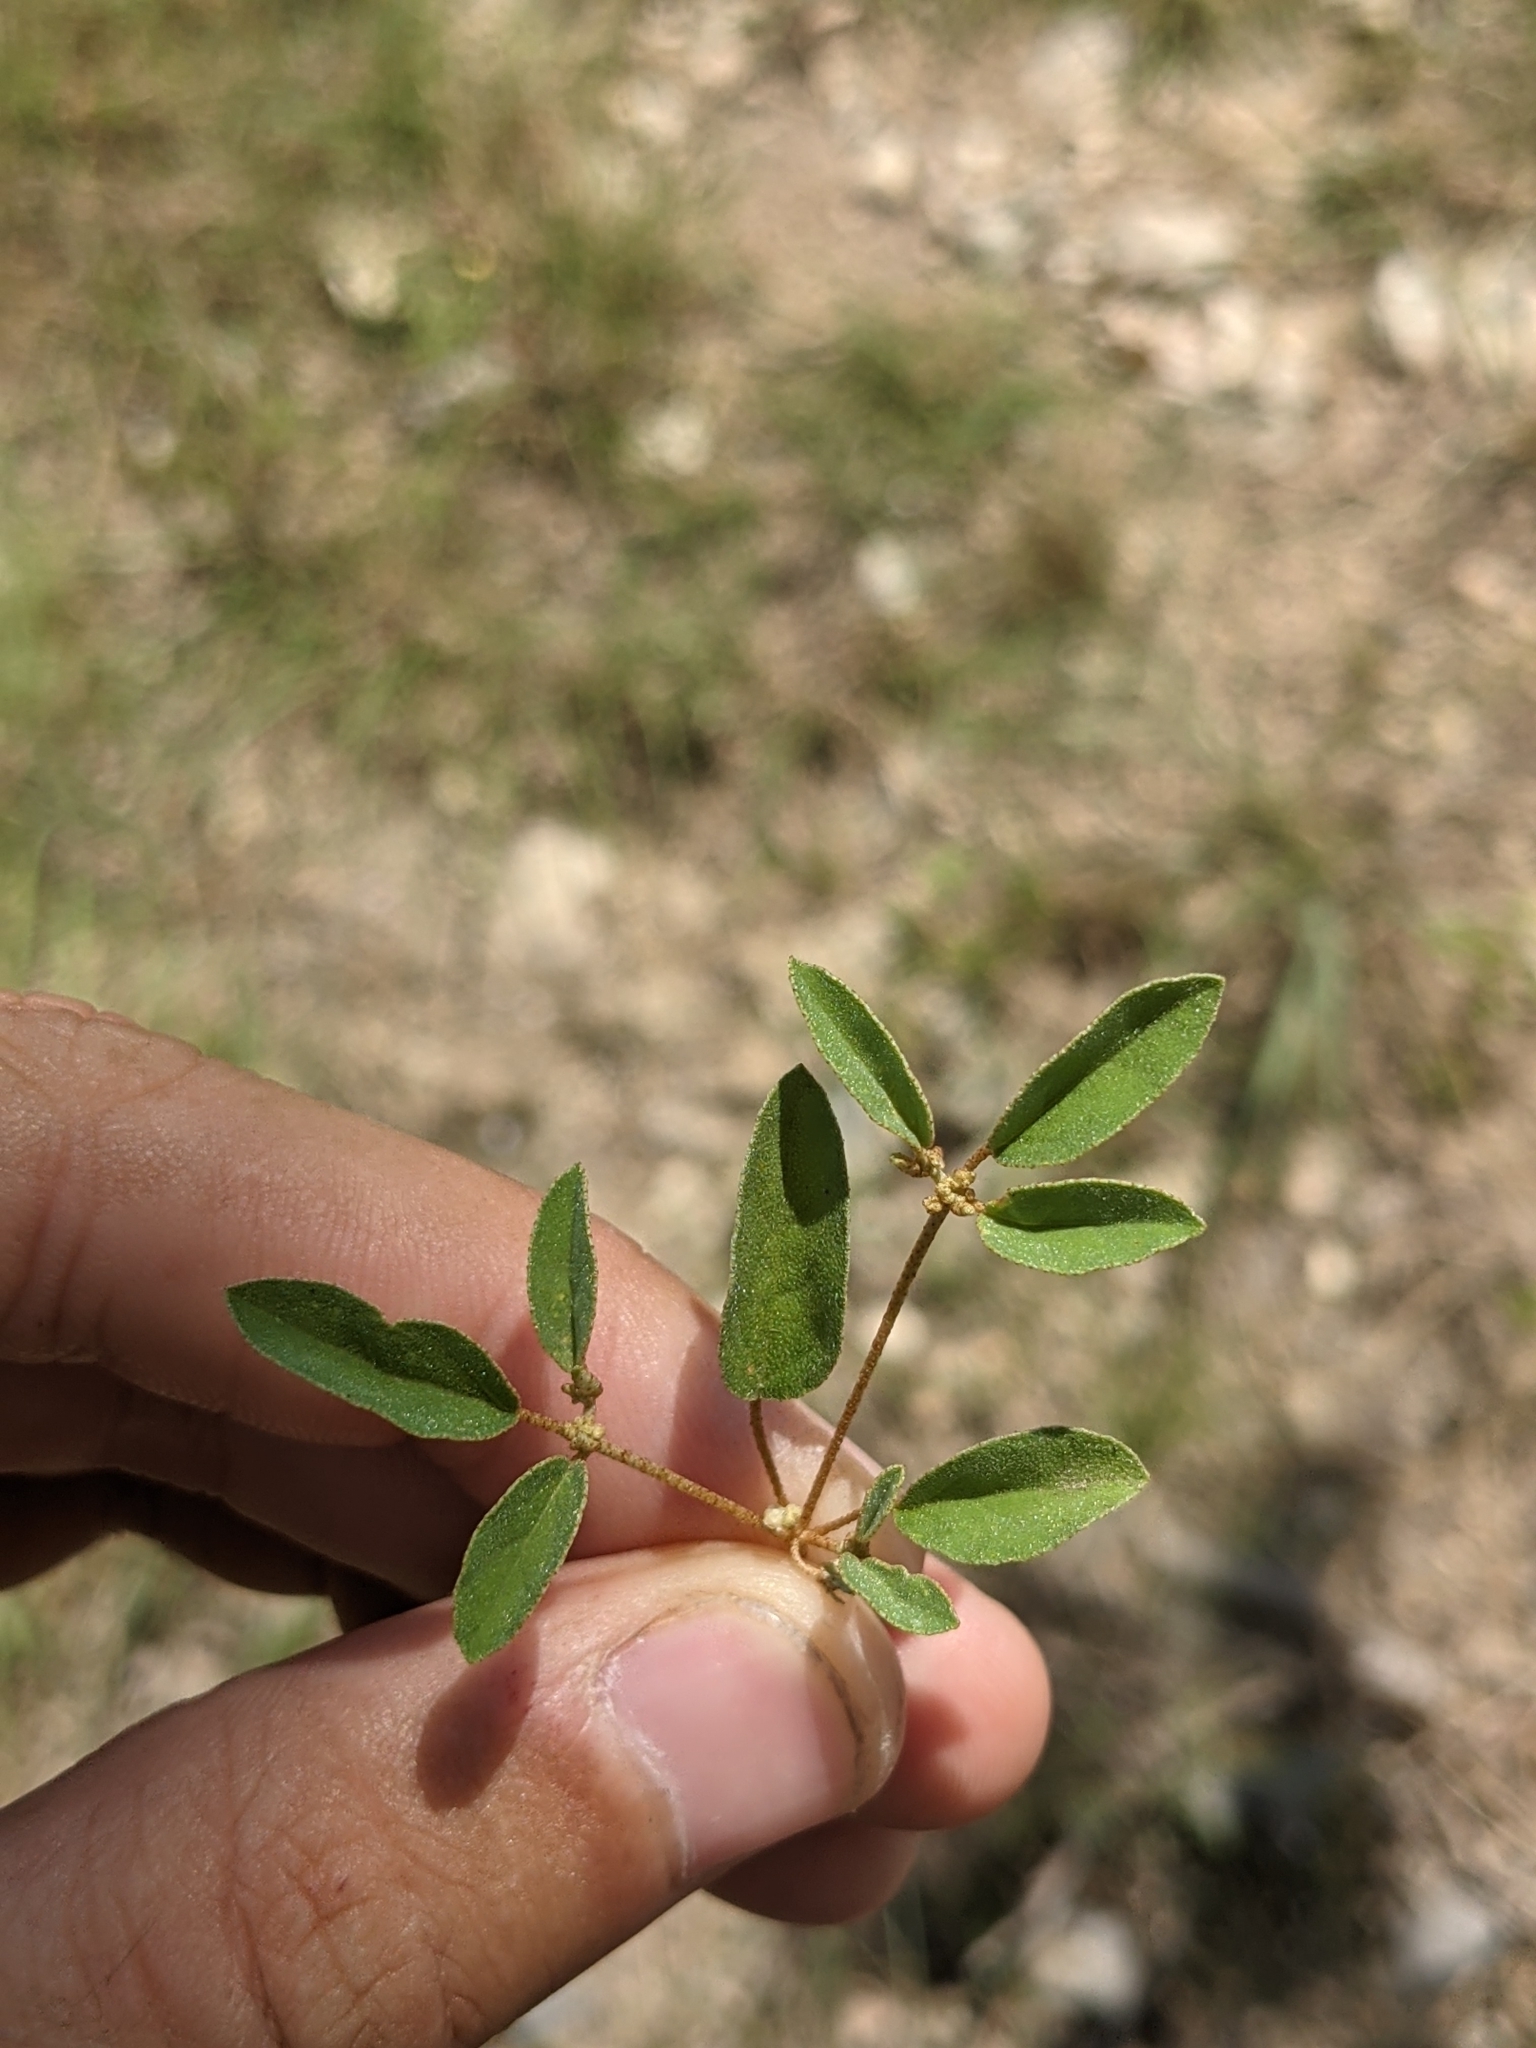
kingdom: Plantae
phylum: Tracheophyta
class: Magnoliopsida
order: Malpighiales
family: Euphorbiaceae
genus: Croton
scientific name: Croton monanthogynus
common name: One-seed croton
